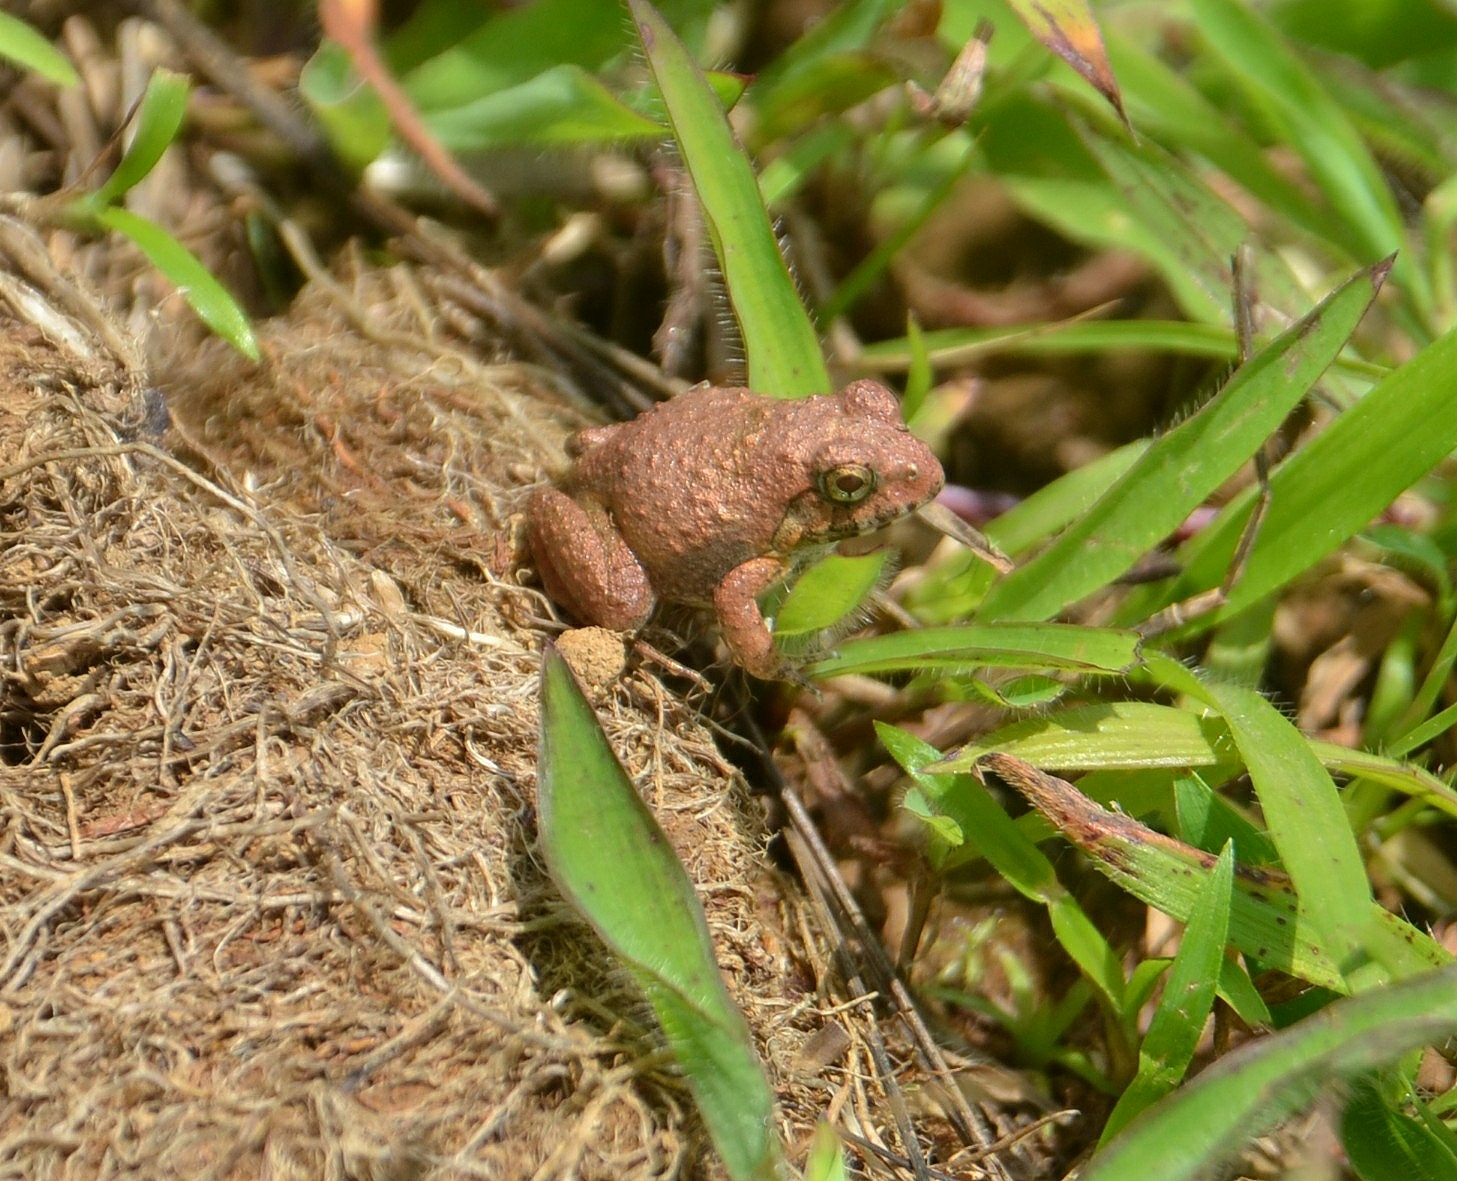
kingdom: Animalia
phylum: Chordata
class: Amphibia
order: Anura
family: Dicroglossidae
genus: Minervarya
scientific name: Minervarya rufescens
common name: Malabar wart frog
